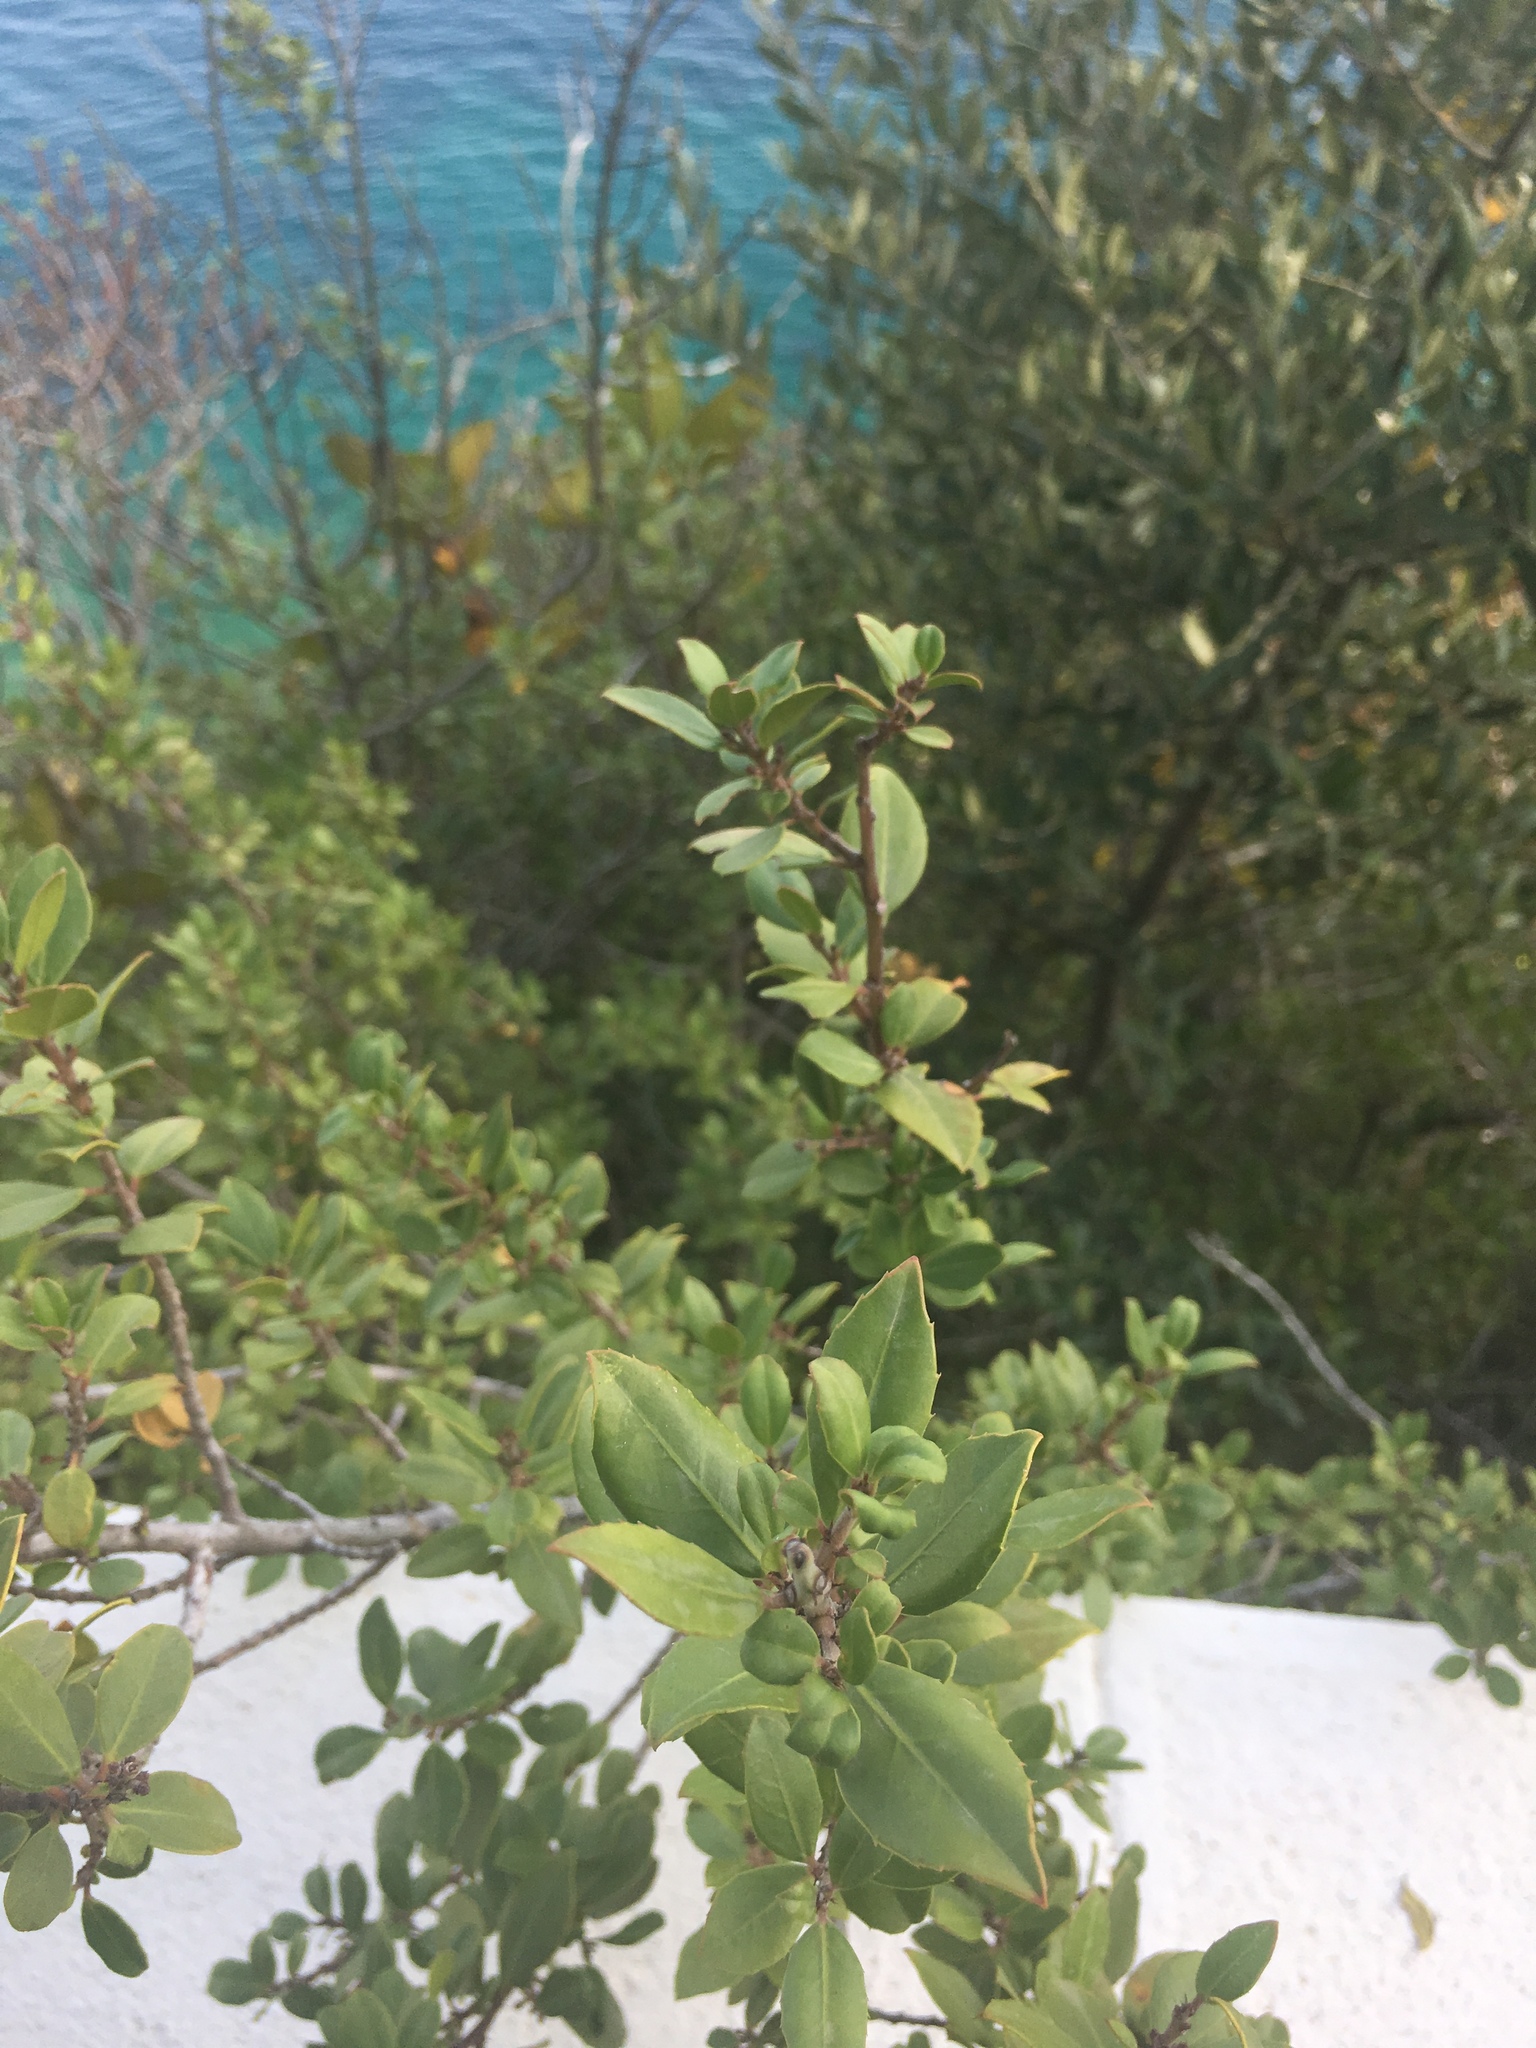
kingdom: Plantae
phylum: Tracheophyta
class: Magnoliopsida
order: Rosales
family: Rhamnaceae
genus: Rhamnus
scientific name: Rhamnus alaternus
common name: Mediterranean buckthorn
